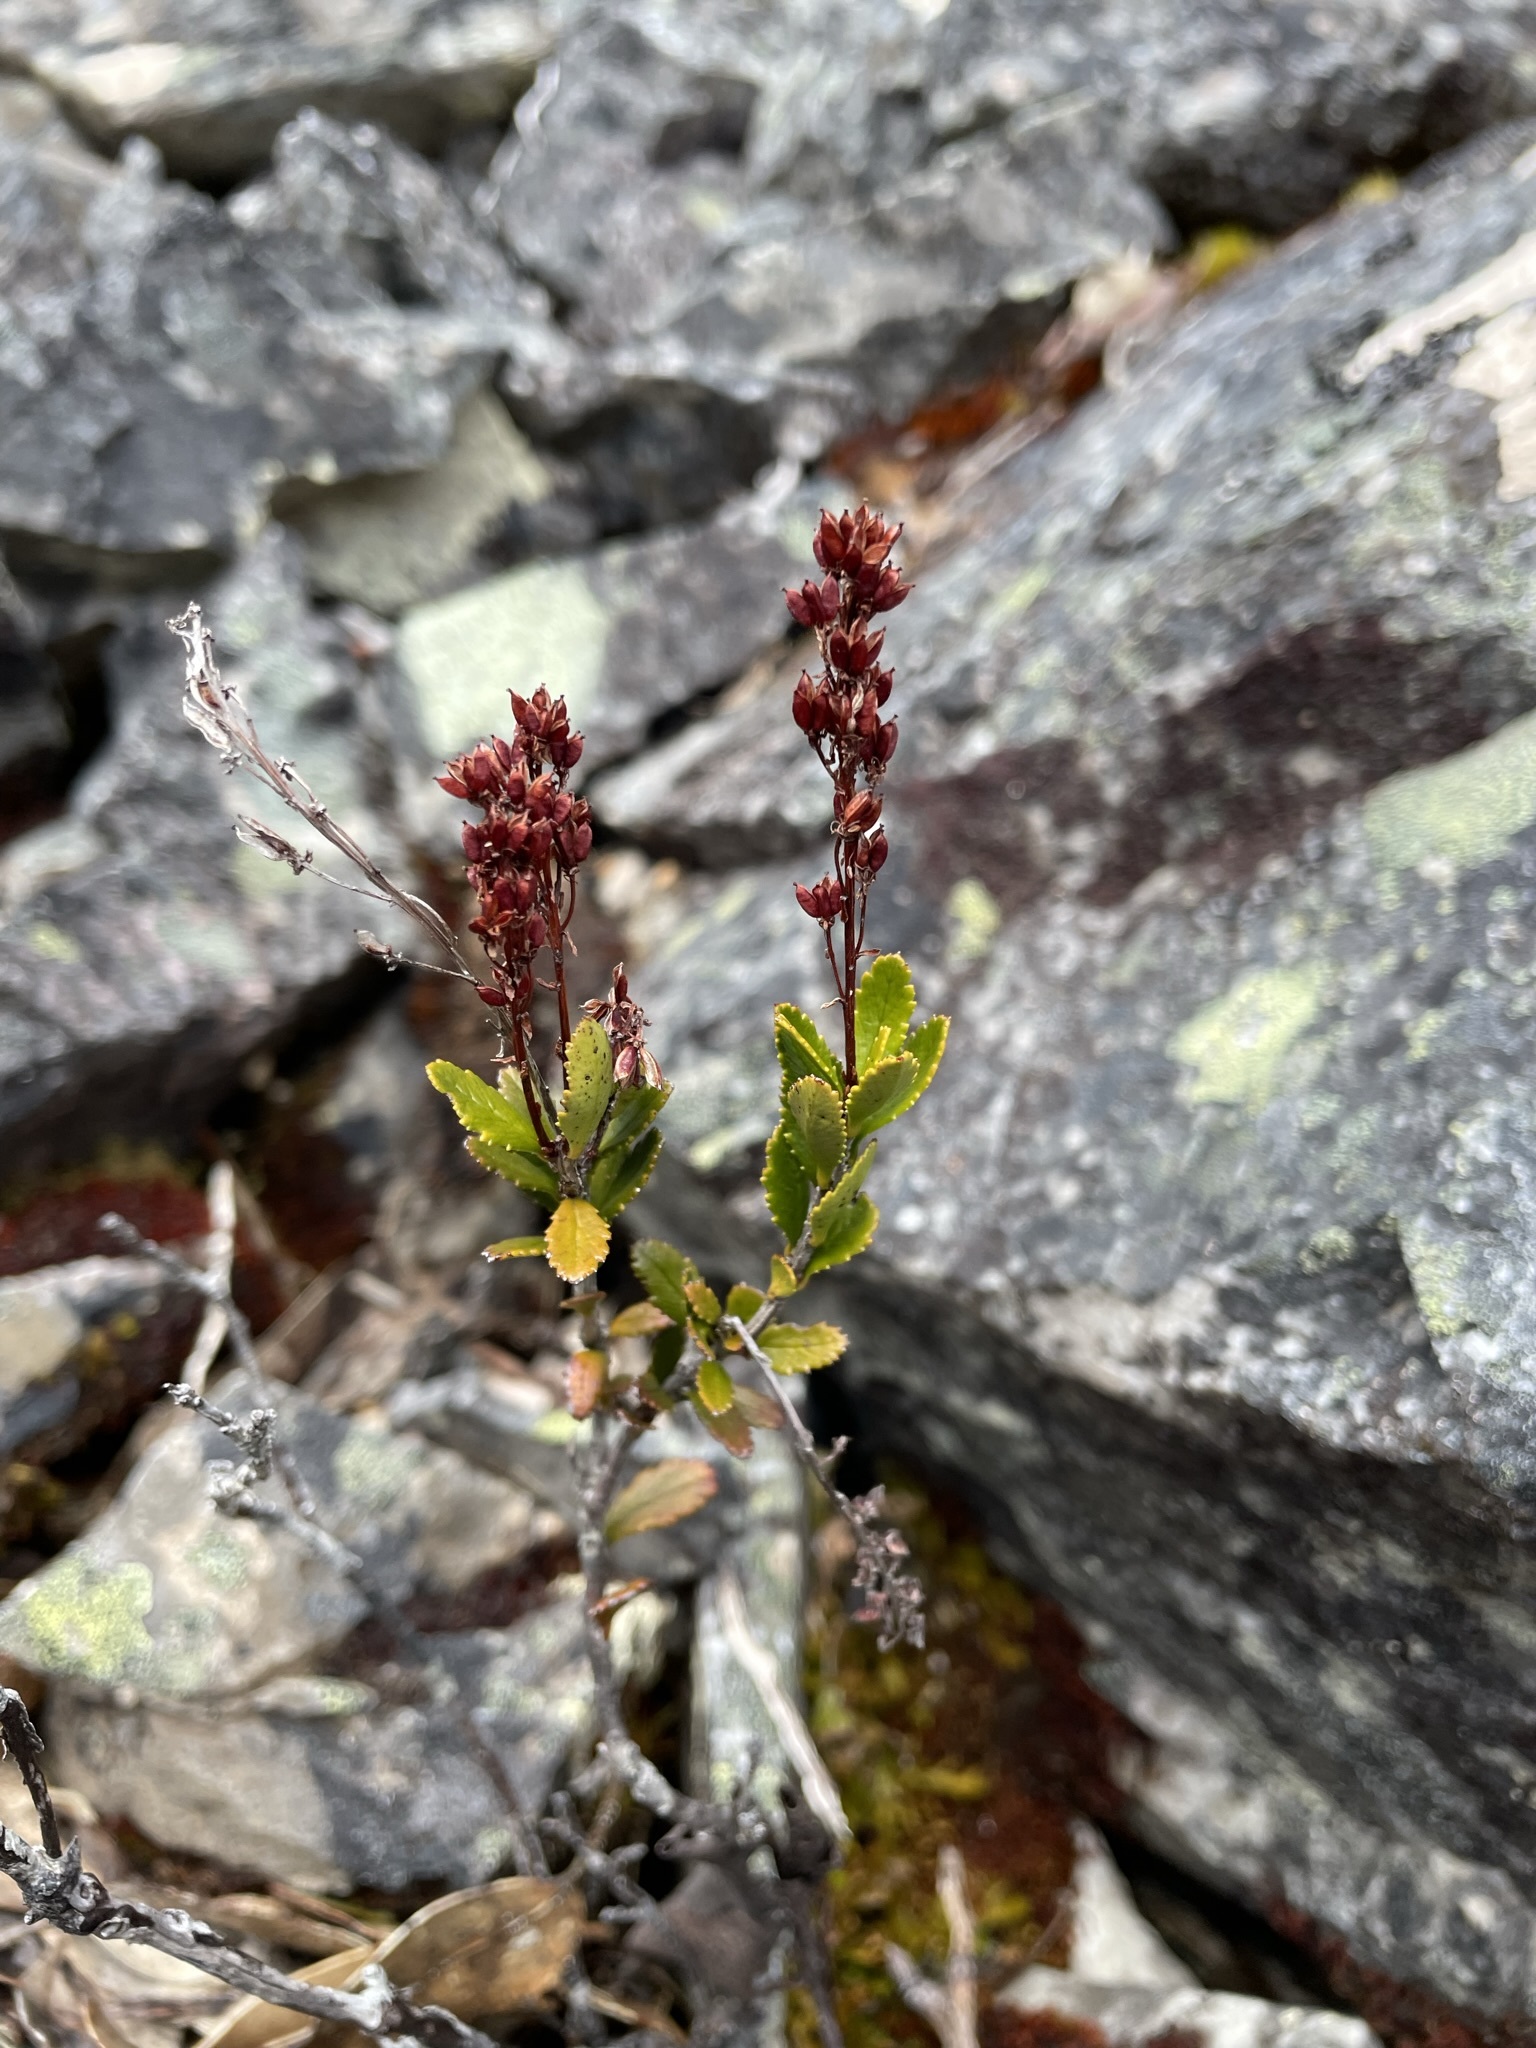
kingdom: Plantae
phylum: Tracheophyta
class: Magnoliopsida
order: Saxifragales
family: Tetracarpaeaceae
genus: Tetracarpaea
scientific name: Tetracarpaea tasmanica
